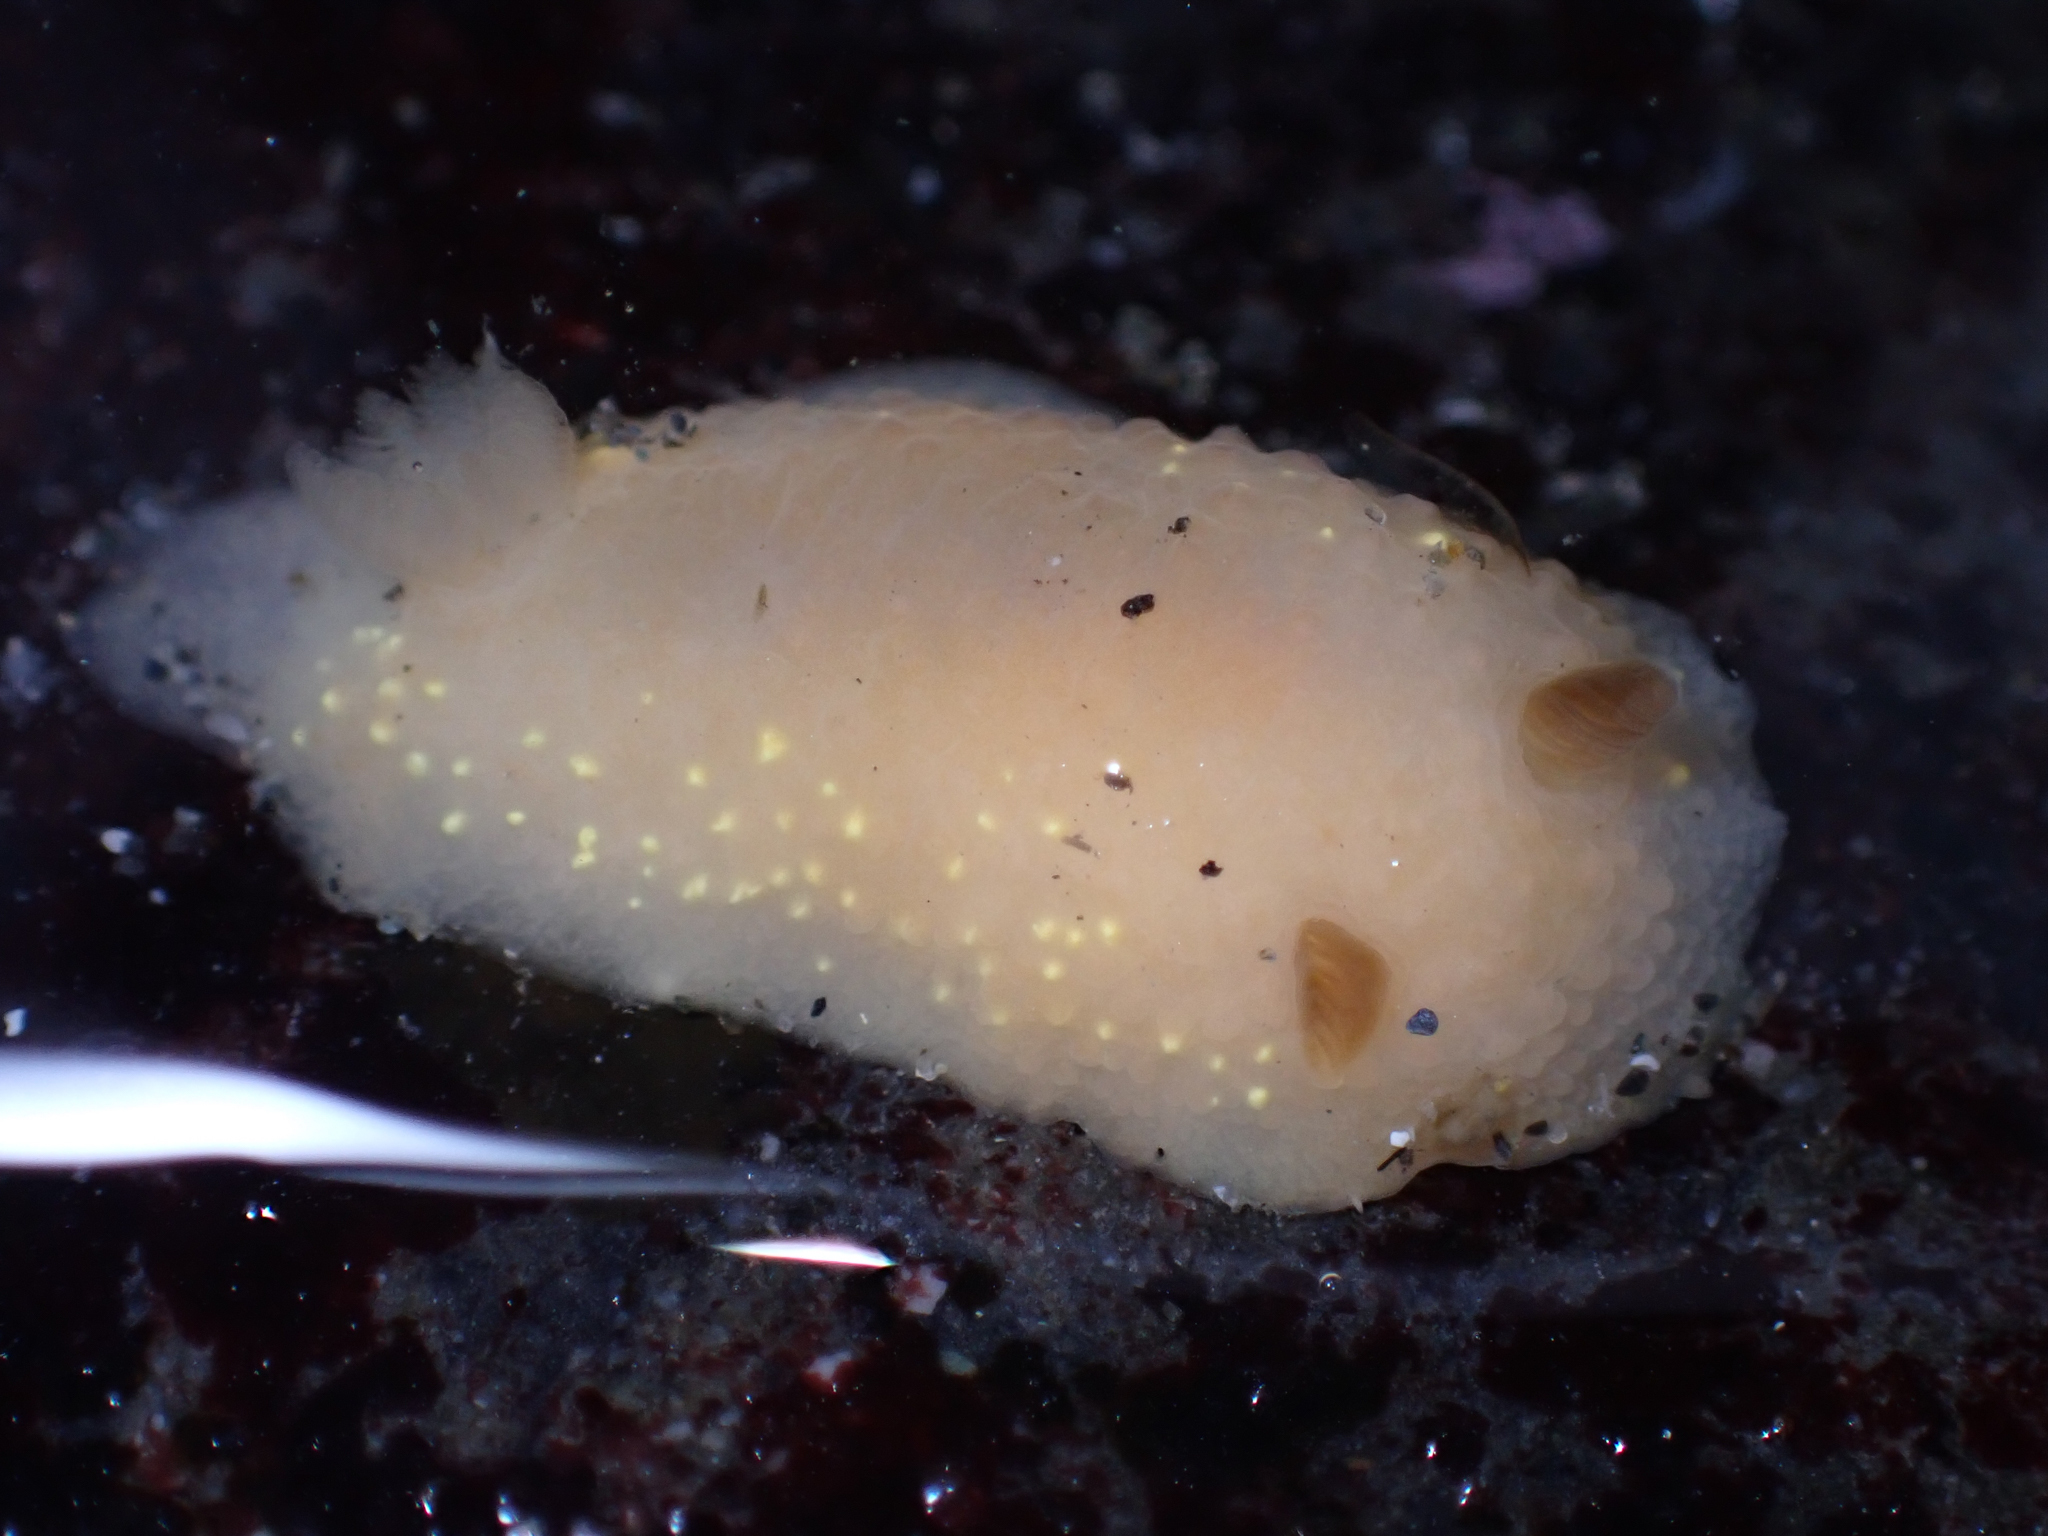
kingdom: Animalia
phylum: Mollusca
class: Gastropoda
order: Nudibranchia
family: Cadlinidae
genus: Cadlina
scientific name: Cadlina modesta
